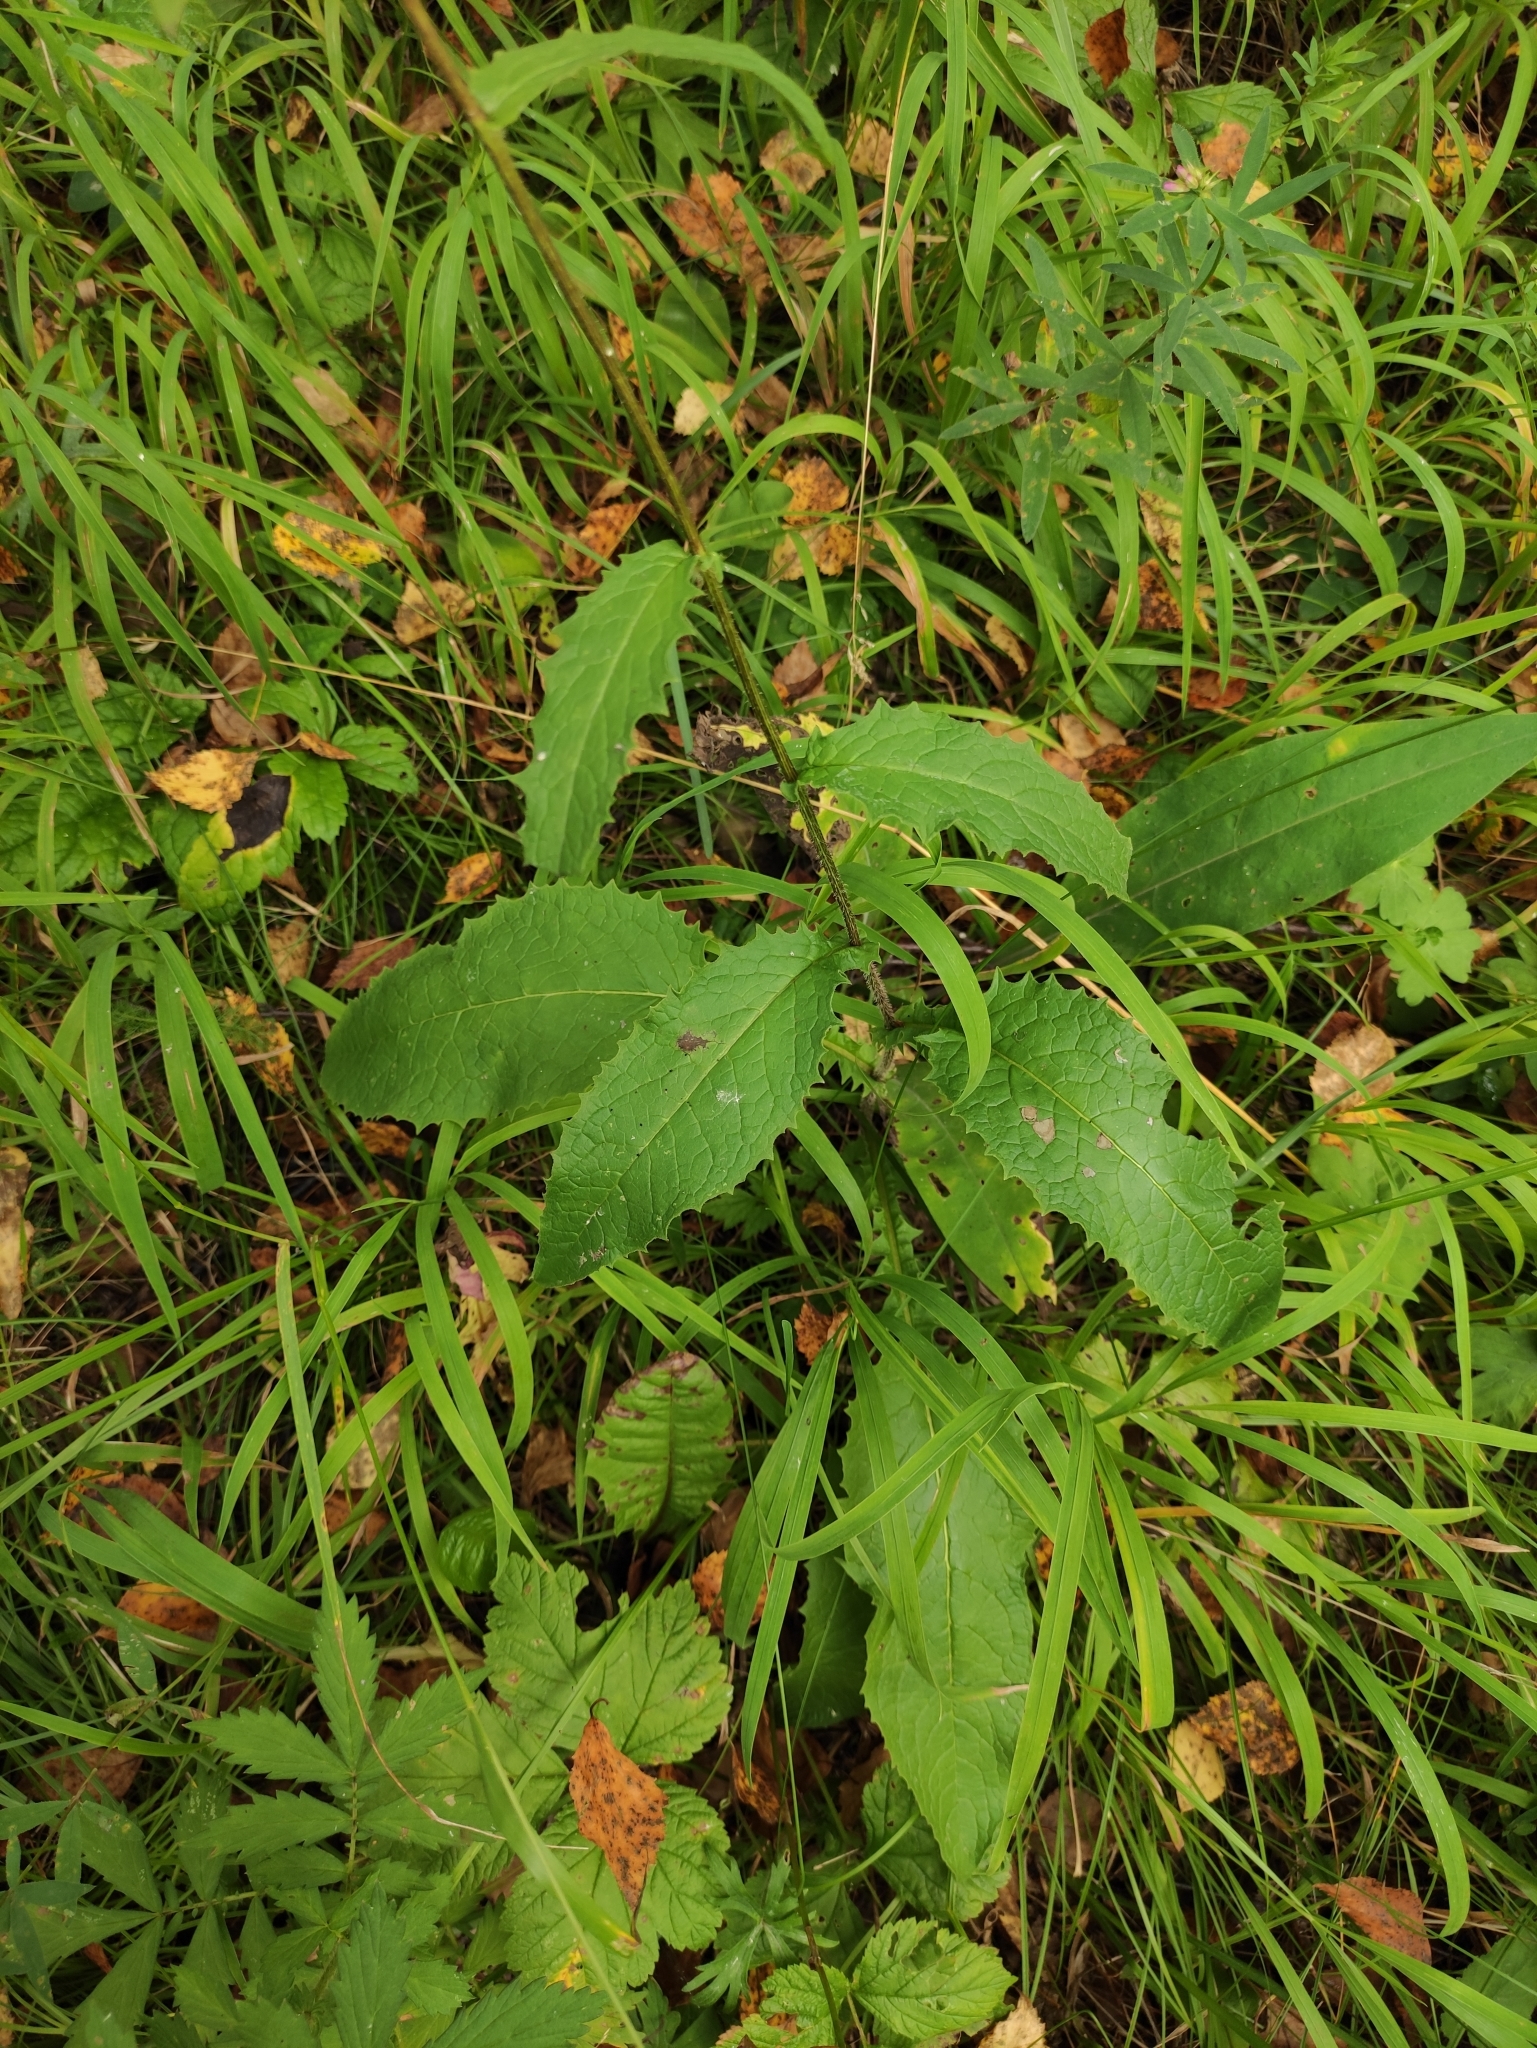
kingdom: Plantae
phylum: Tracheophyta
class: Magnoliopsida
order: Asterales
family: Asteraceae
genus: Crepis
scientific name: Crepis sibirica
